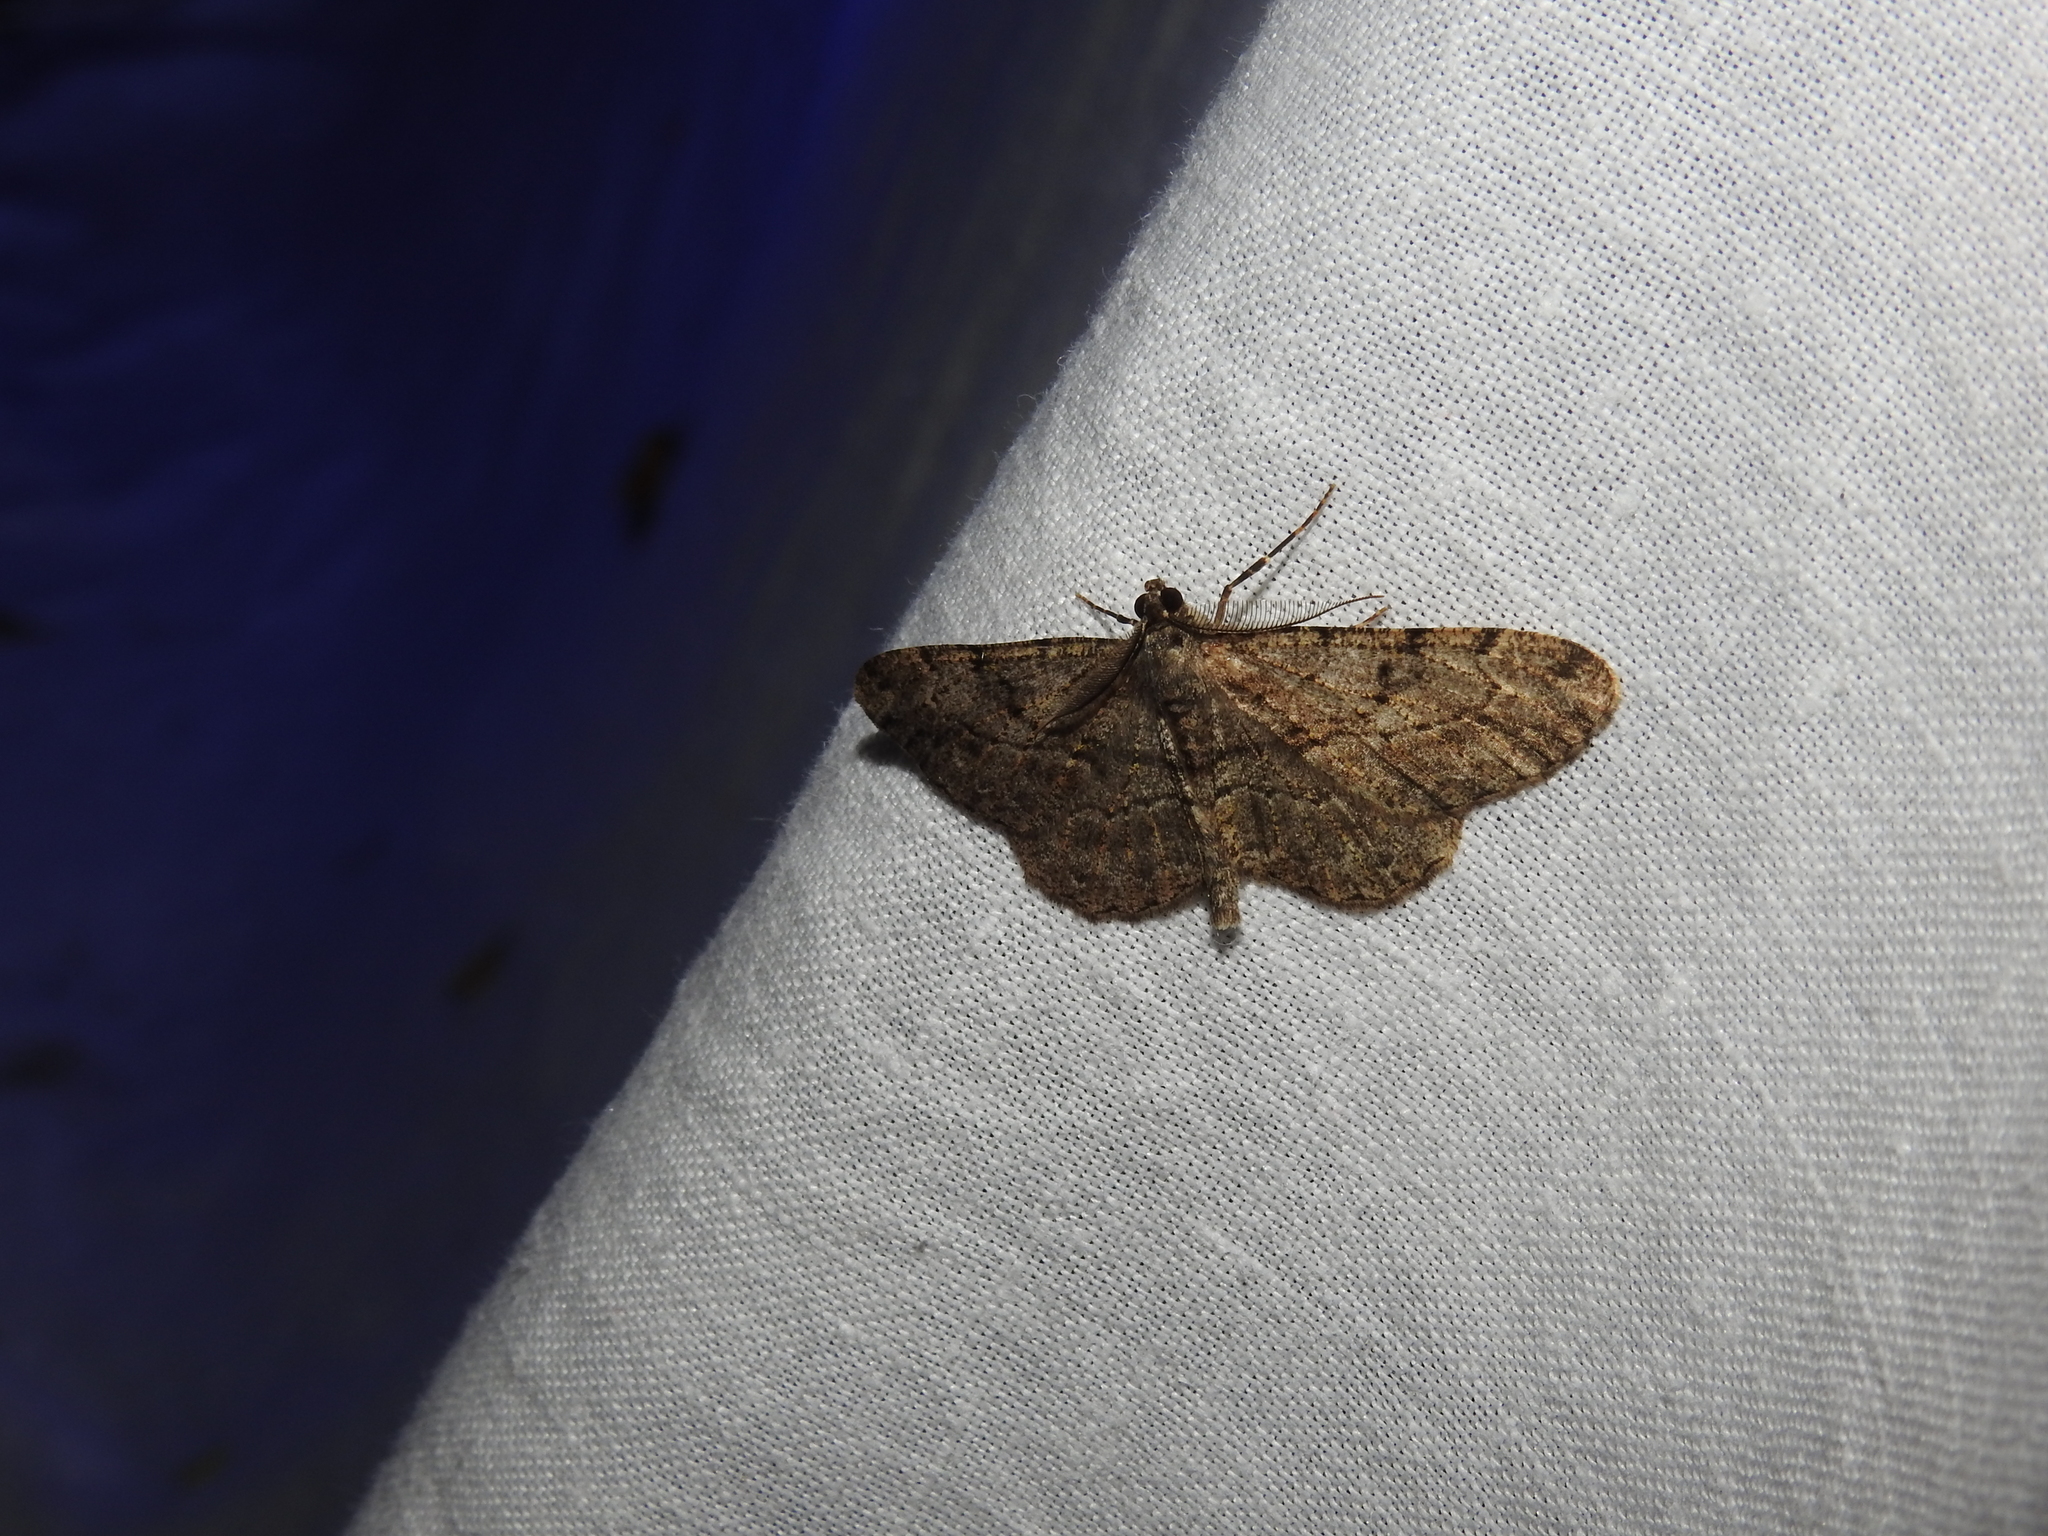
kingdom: Animalia
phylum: Arthropoda
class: Insecta
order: Lepidoptera
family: Geometridae
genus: Peribatodes
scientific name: Peribatodes rhomboidaria
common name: Willow beauty
